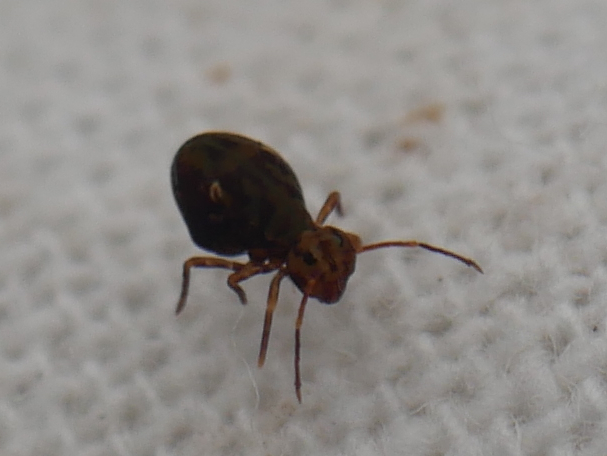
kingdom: Animalia
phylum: Arthropoda
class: Collembola
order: Symphypleona
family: Dicyrtomidae
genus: Dicyrtomina
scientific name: Dicyrtomina saundersi
